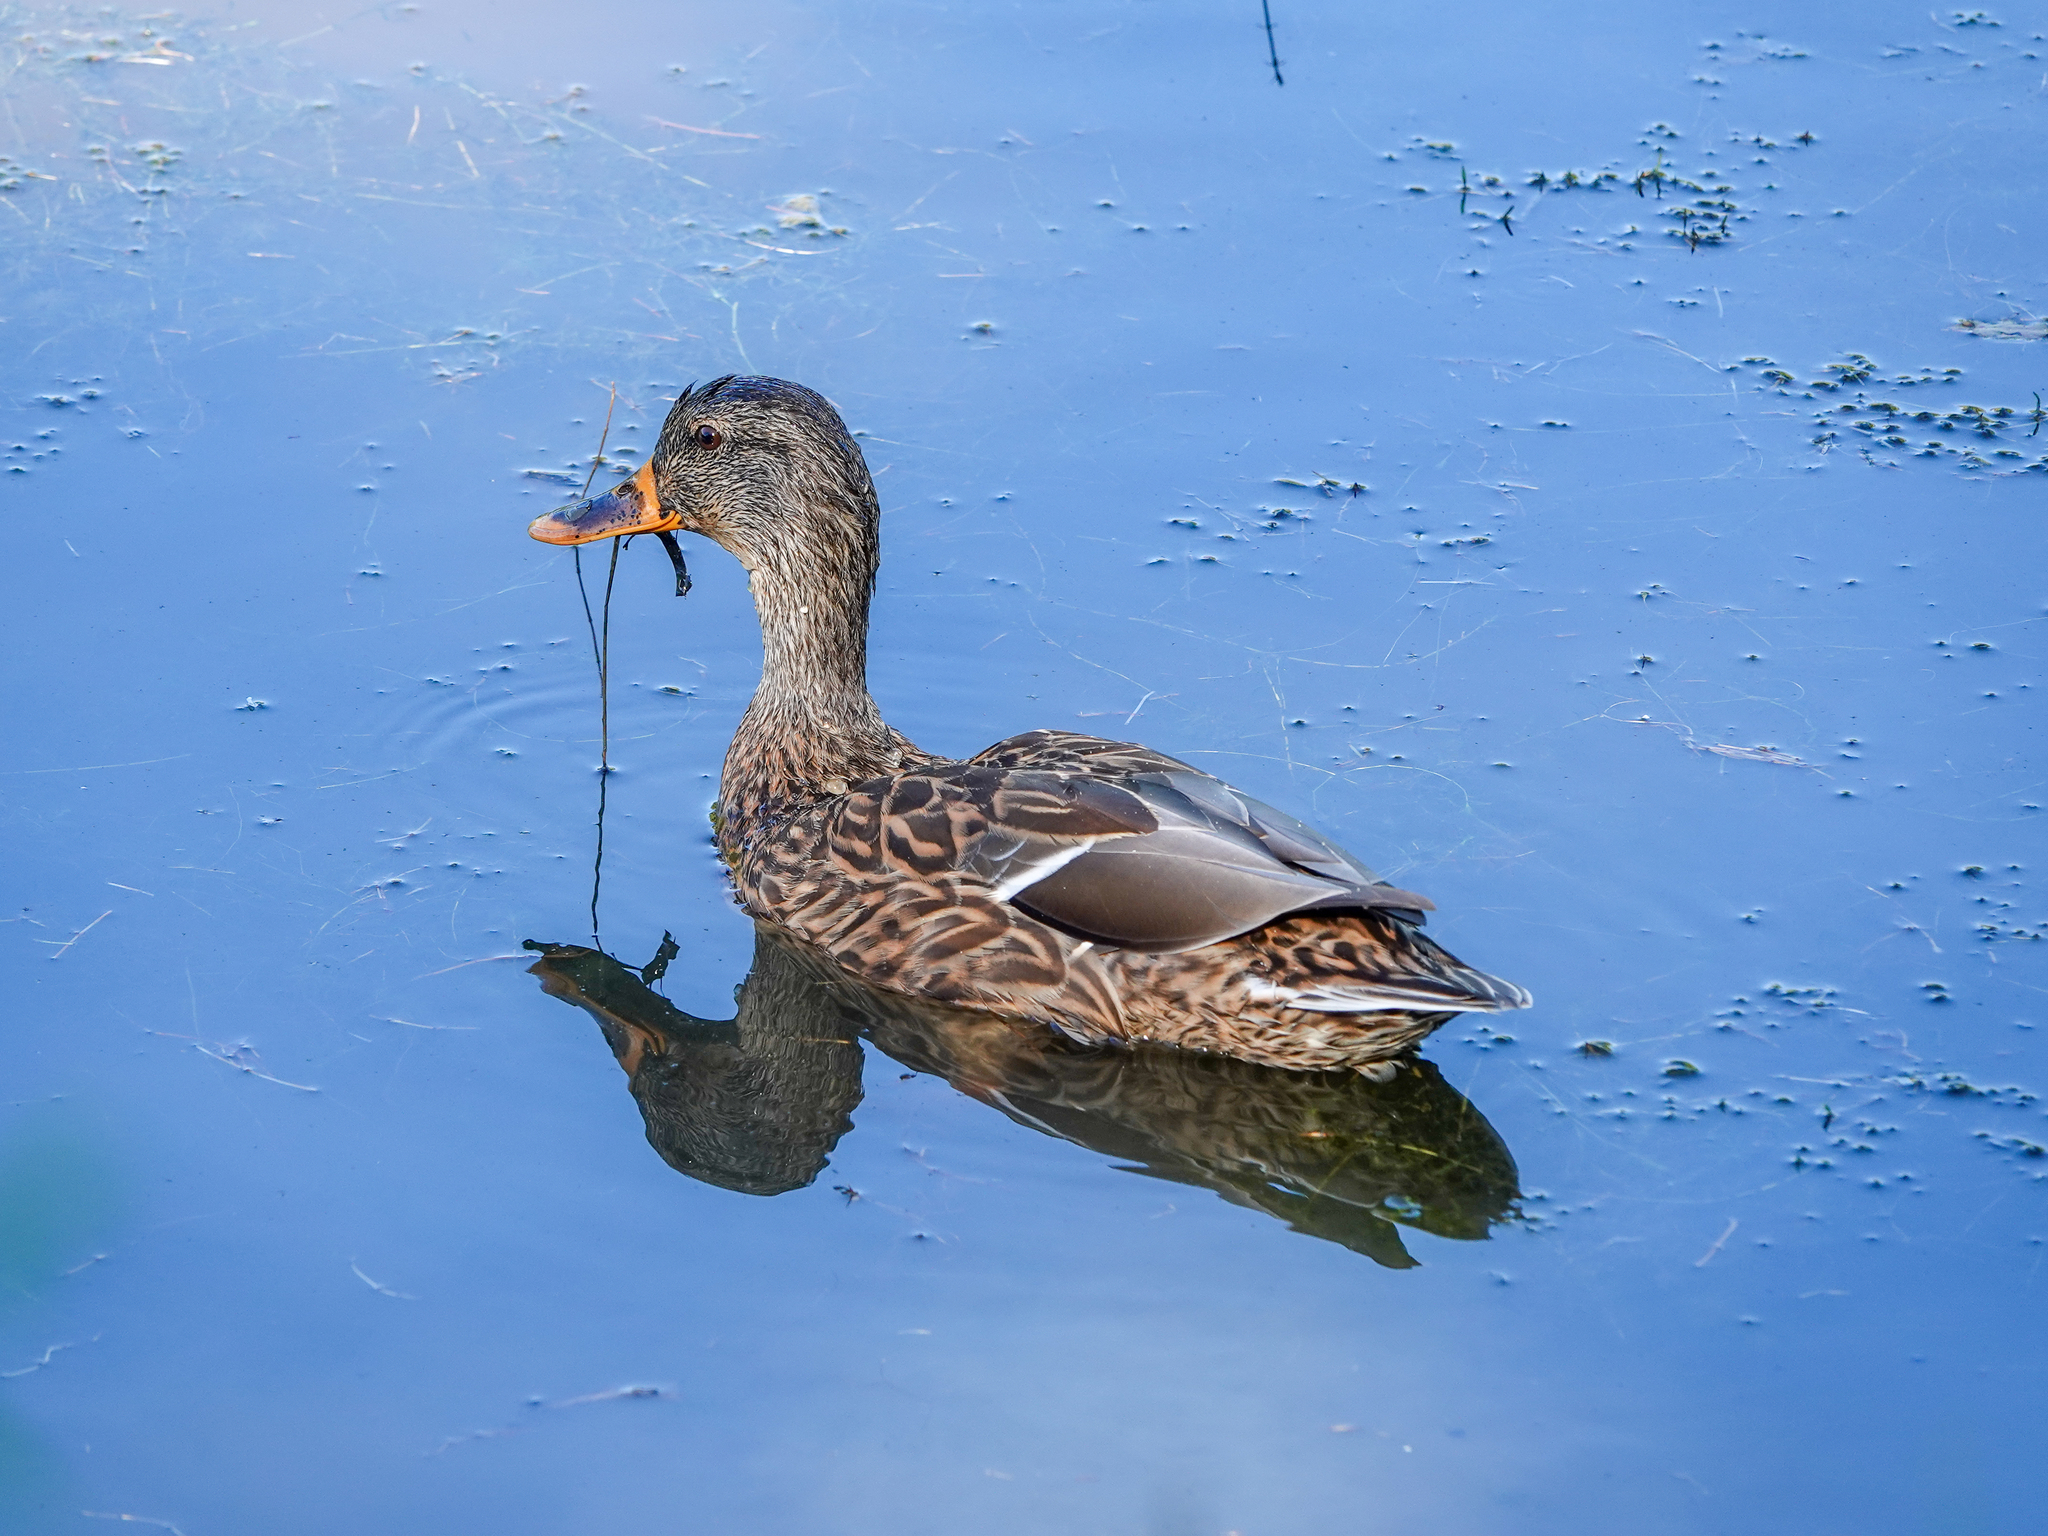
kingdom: Animalia
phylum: Chordata
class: Aves
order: Anseriformes
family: Anatidae
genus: Anas
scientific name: Anas platyrhynchos
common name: Mallard
